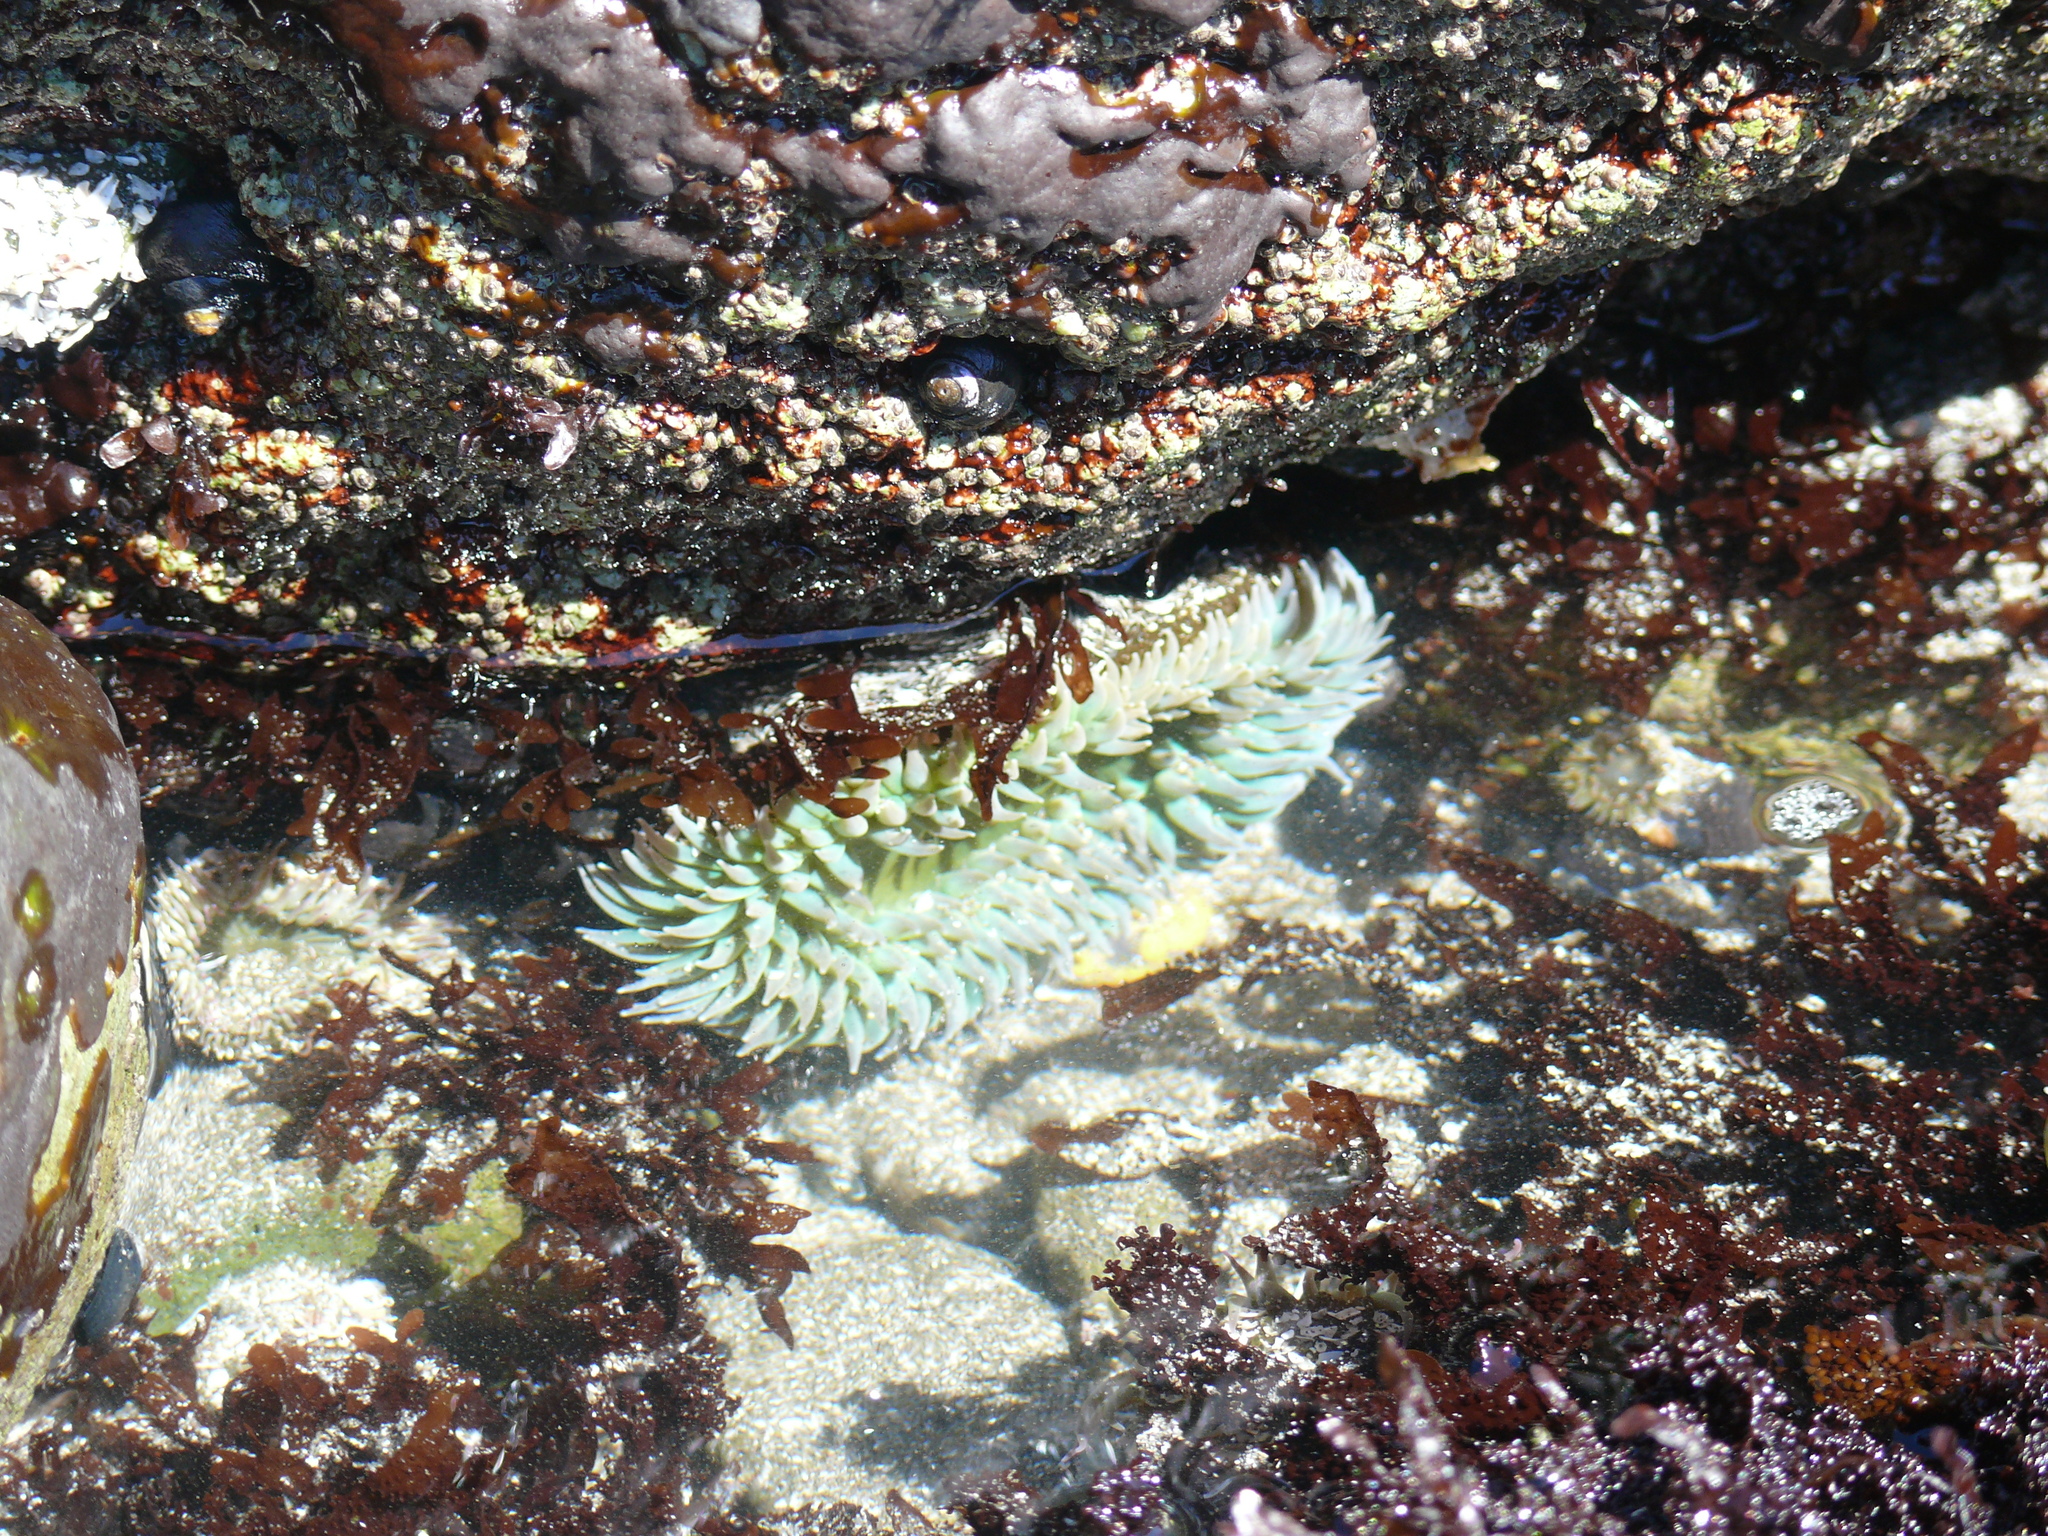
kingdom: Animalia
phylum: Cnidaria
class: Anthozoa
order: Actiniaria
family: Actiniidae
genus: Anthopleura
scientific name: Anthopleura xanthogrammica
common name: Giant green anemone
